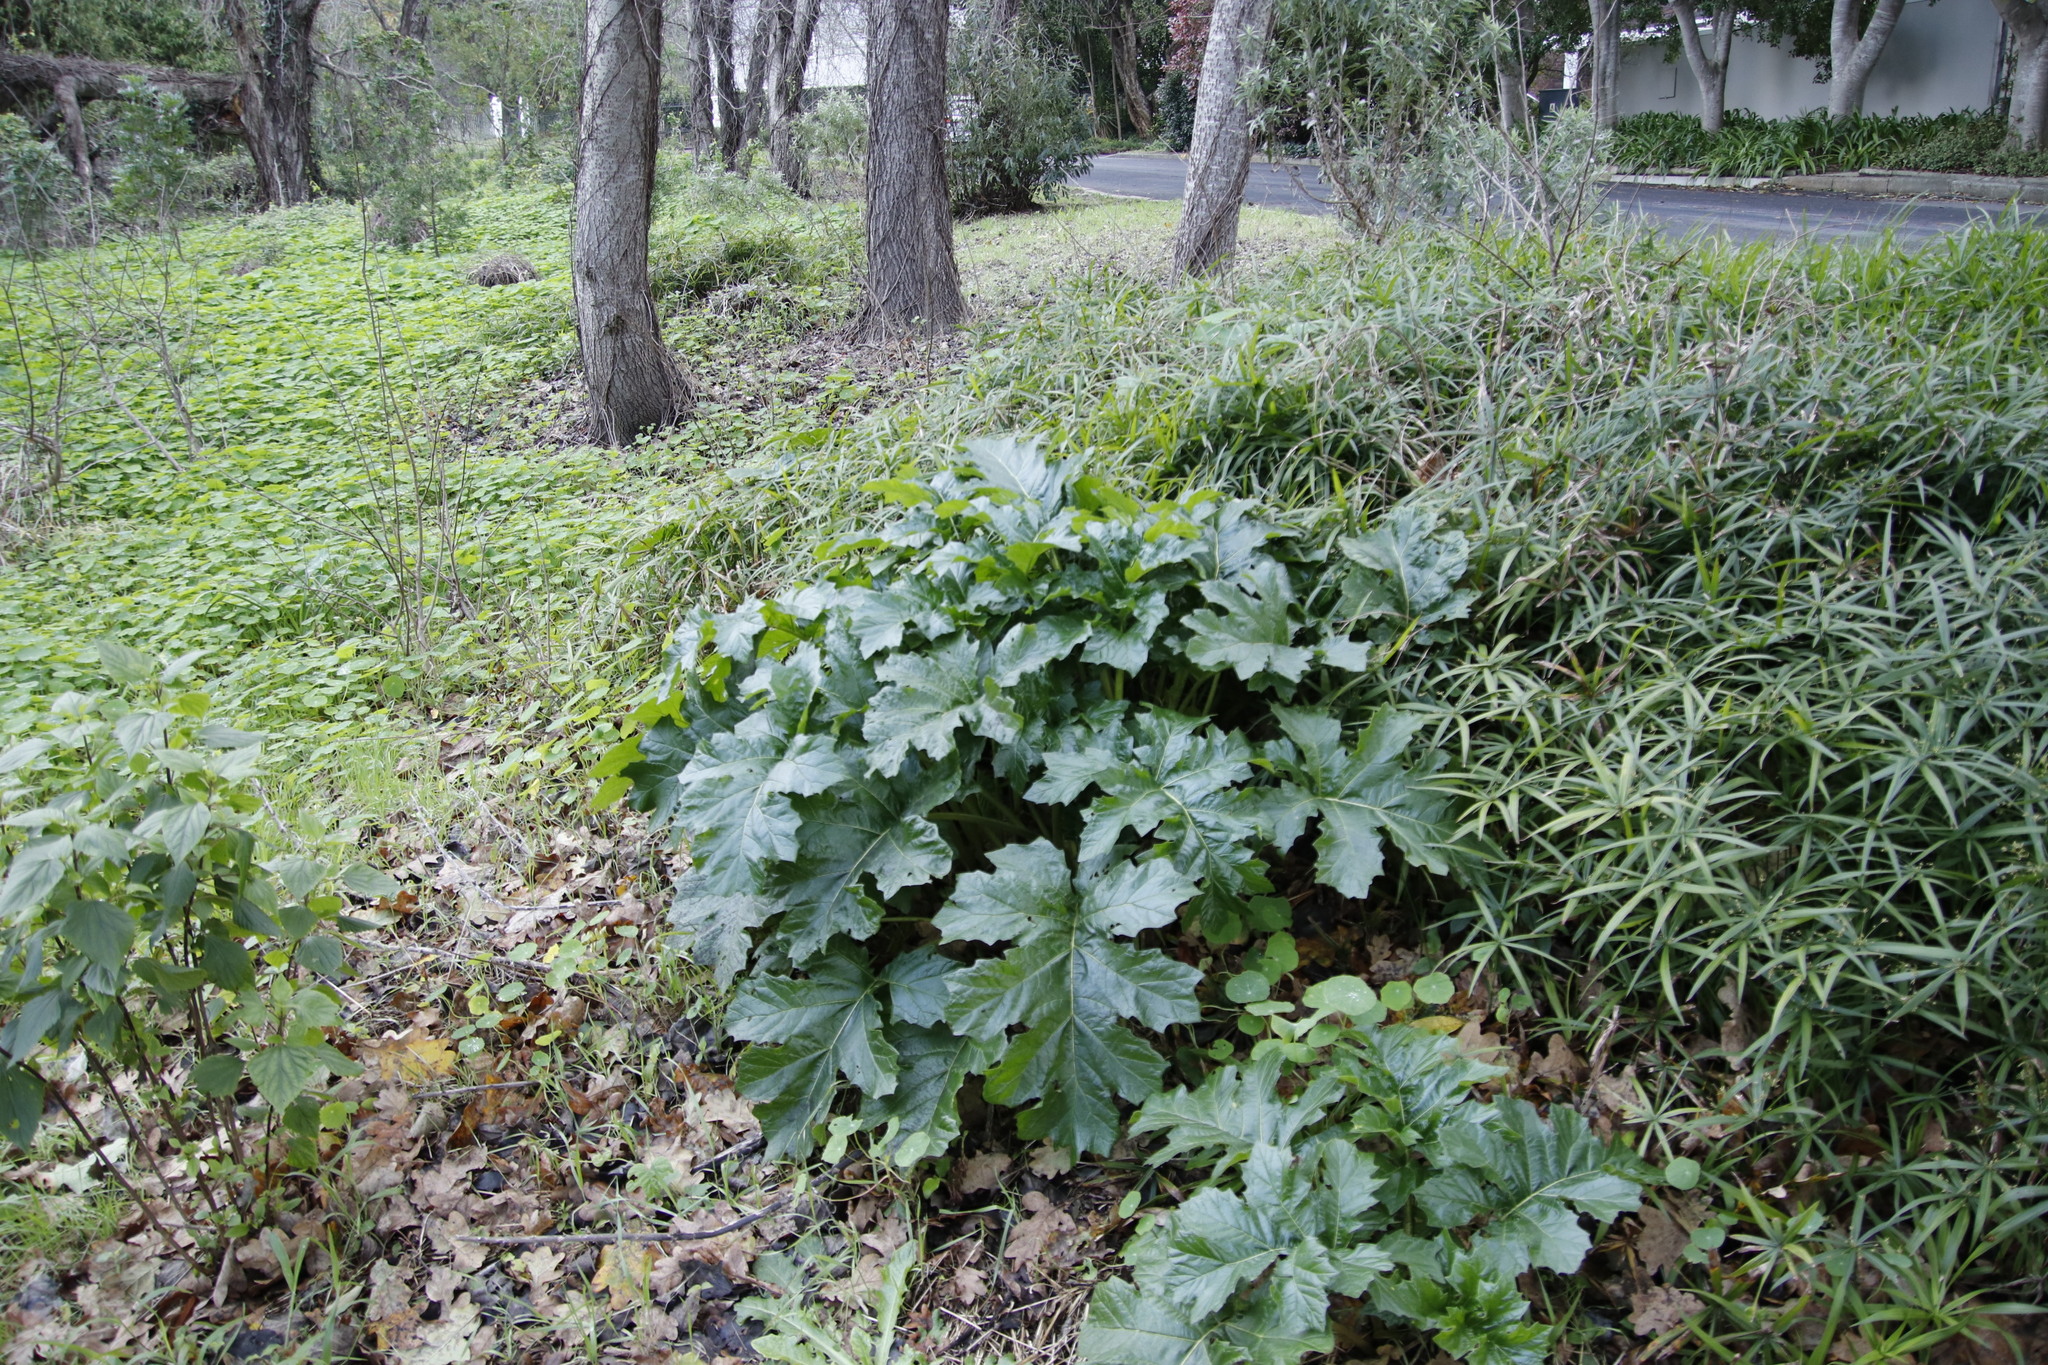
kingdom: Plantae
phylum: Tracheophyta
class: Magnoliopsida
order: Lamiales
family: Acanthaceae
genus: Acanthus
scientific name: Acanthus mollis
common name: Bear's-breech
